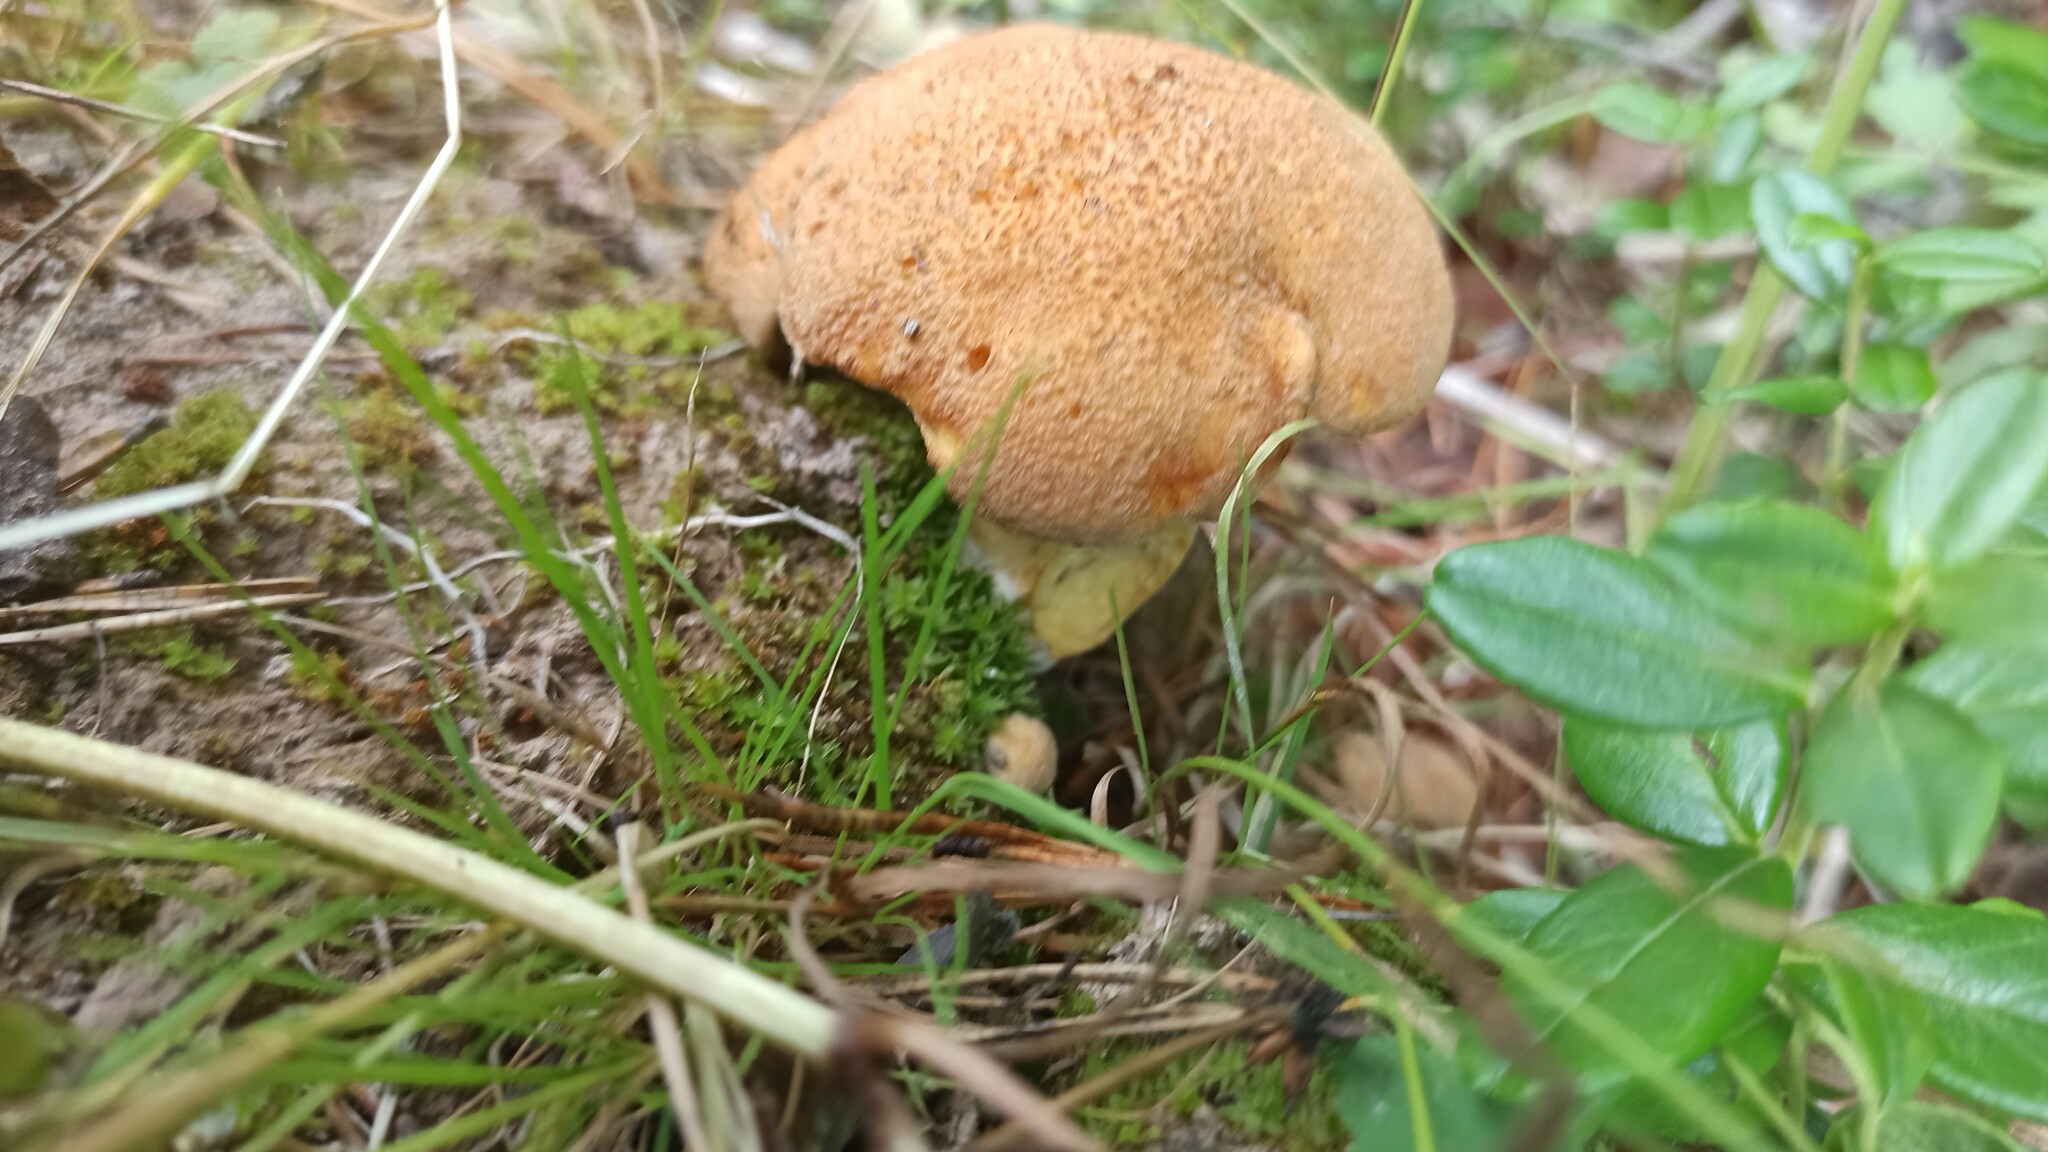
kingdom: Fungi
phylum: Basidiomycota
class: Agaricomycetes
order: Boletales
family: Suillaceae
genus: Suillus
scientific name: Suillus variegatus
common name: Velvet bolete
